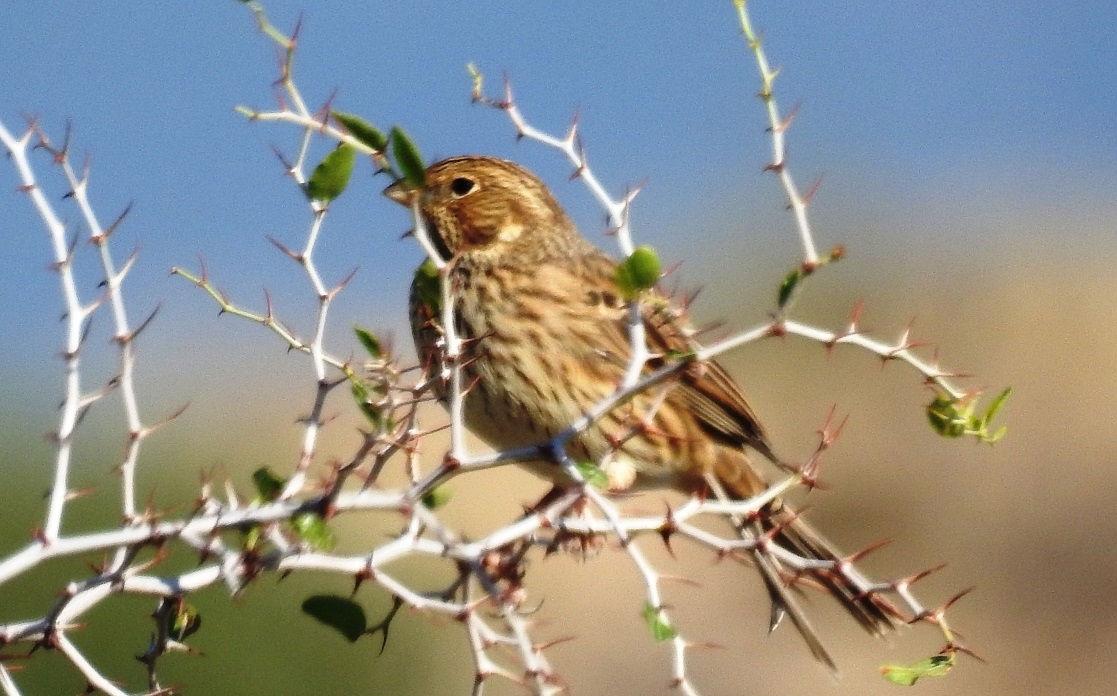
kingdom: Animalia
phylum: Chordata
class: Aves
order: Passeriformes
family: Emberizidae
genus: Emberiza
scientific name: Emberiza calandra
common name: Corn bunting
